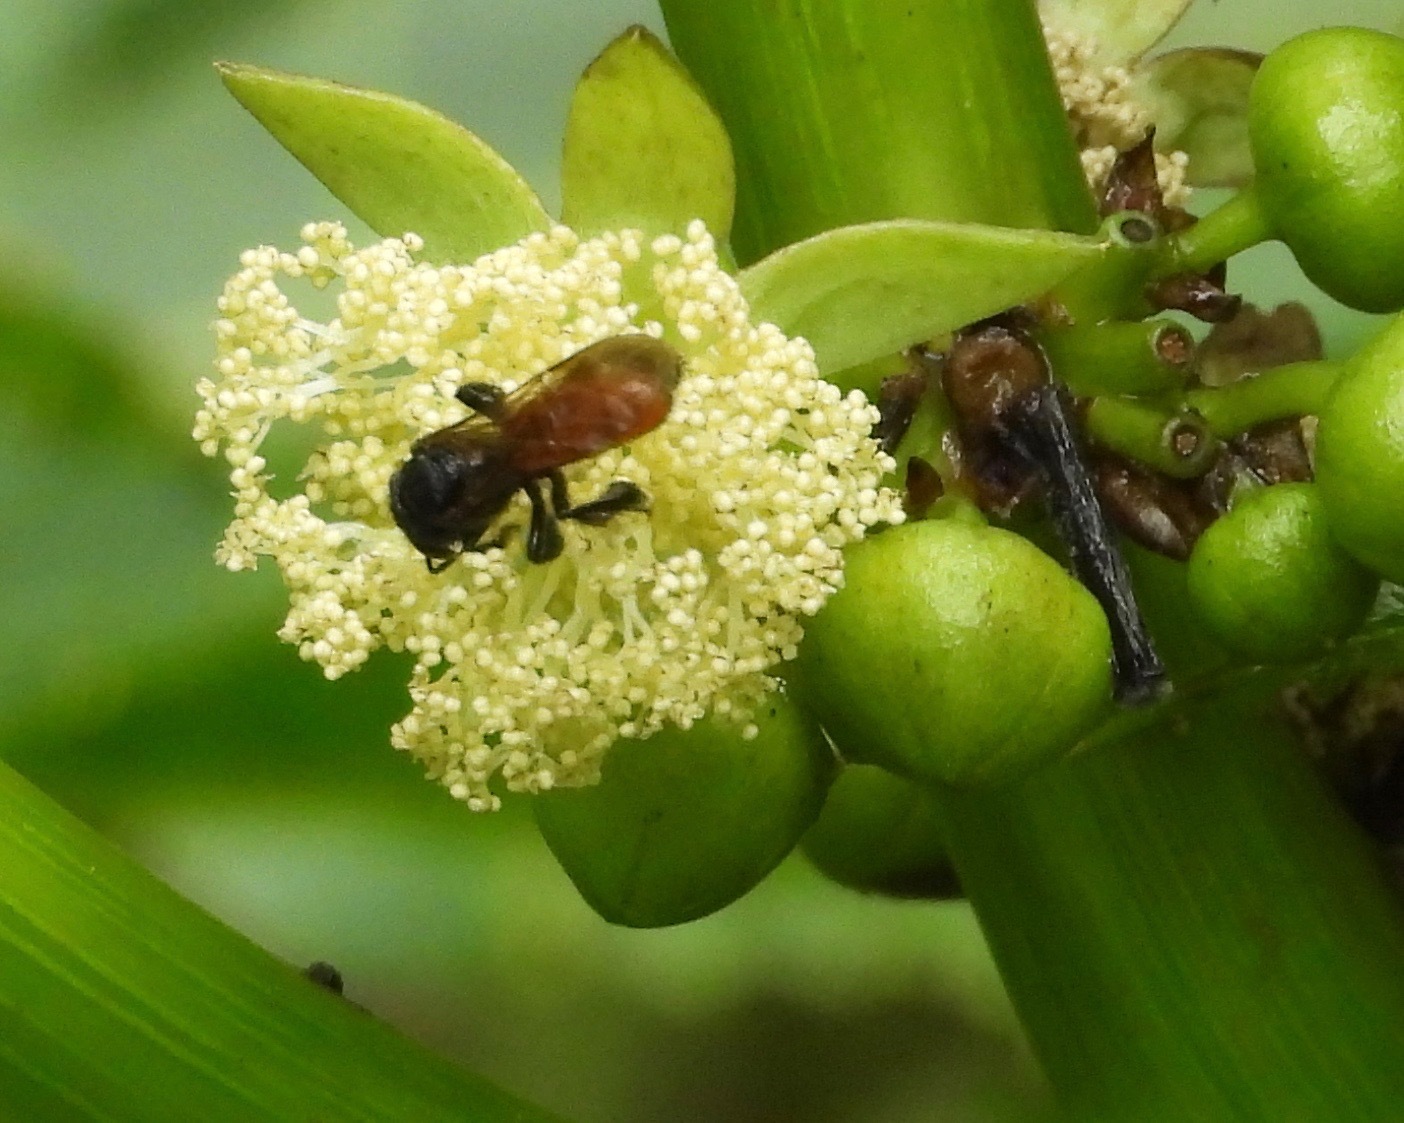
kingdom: Animalia
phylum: Arthropoda
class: Insecta
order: Hymenoptera
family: Apidae
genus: Trigona
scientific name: Trigona fulviventris
